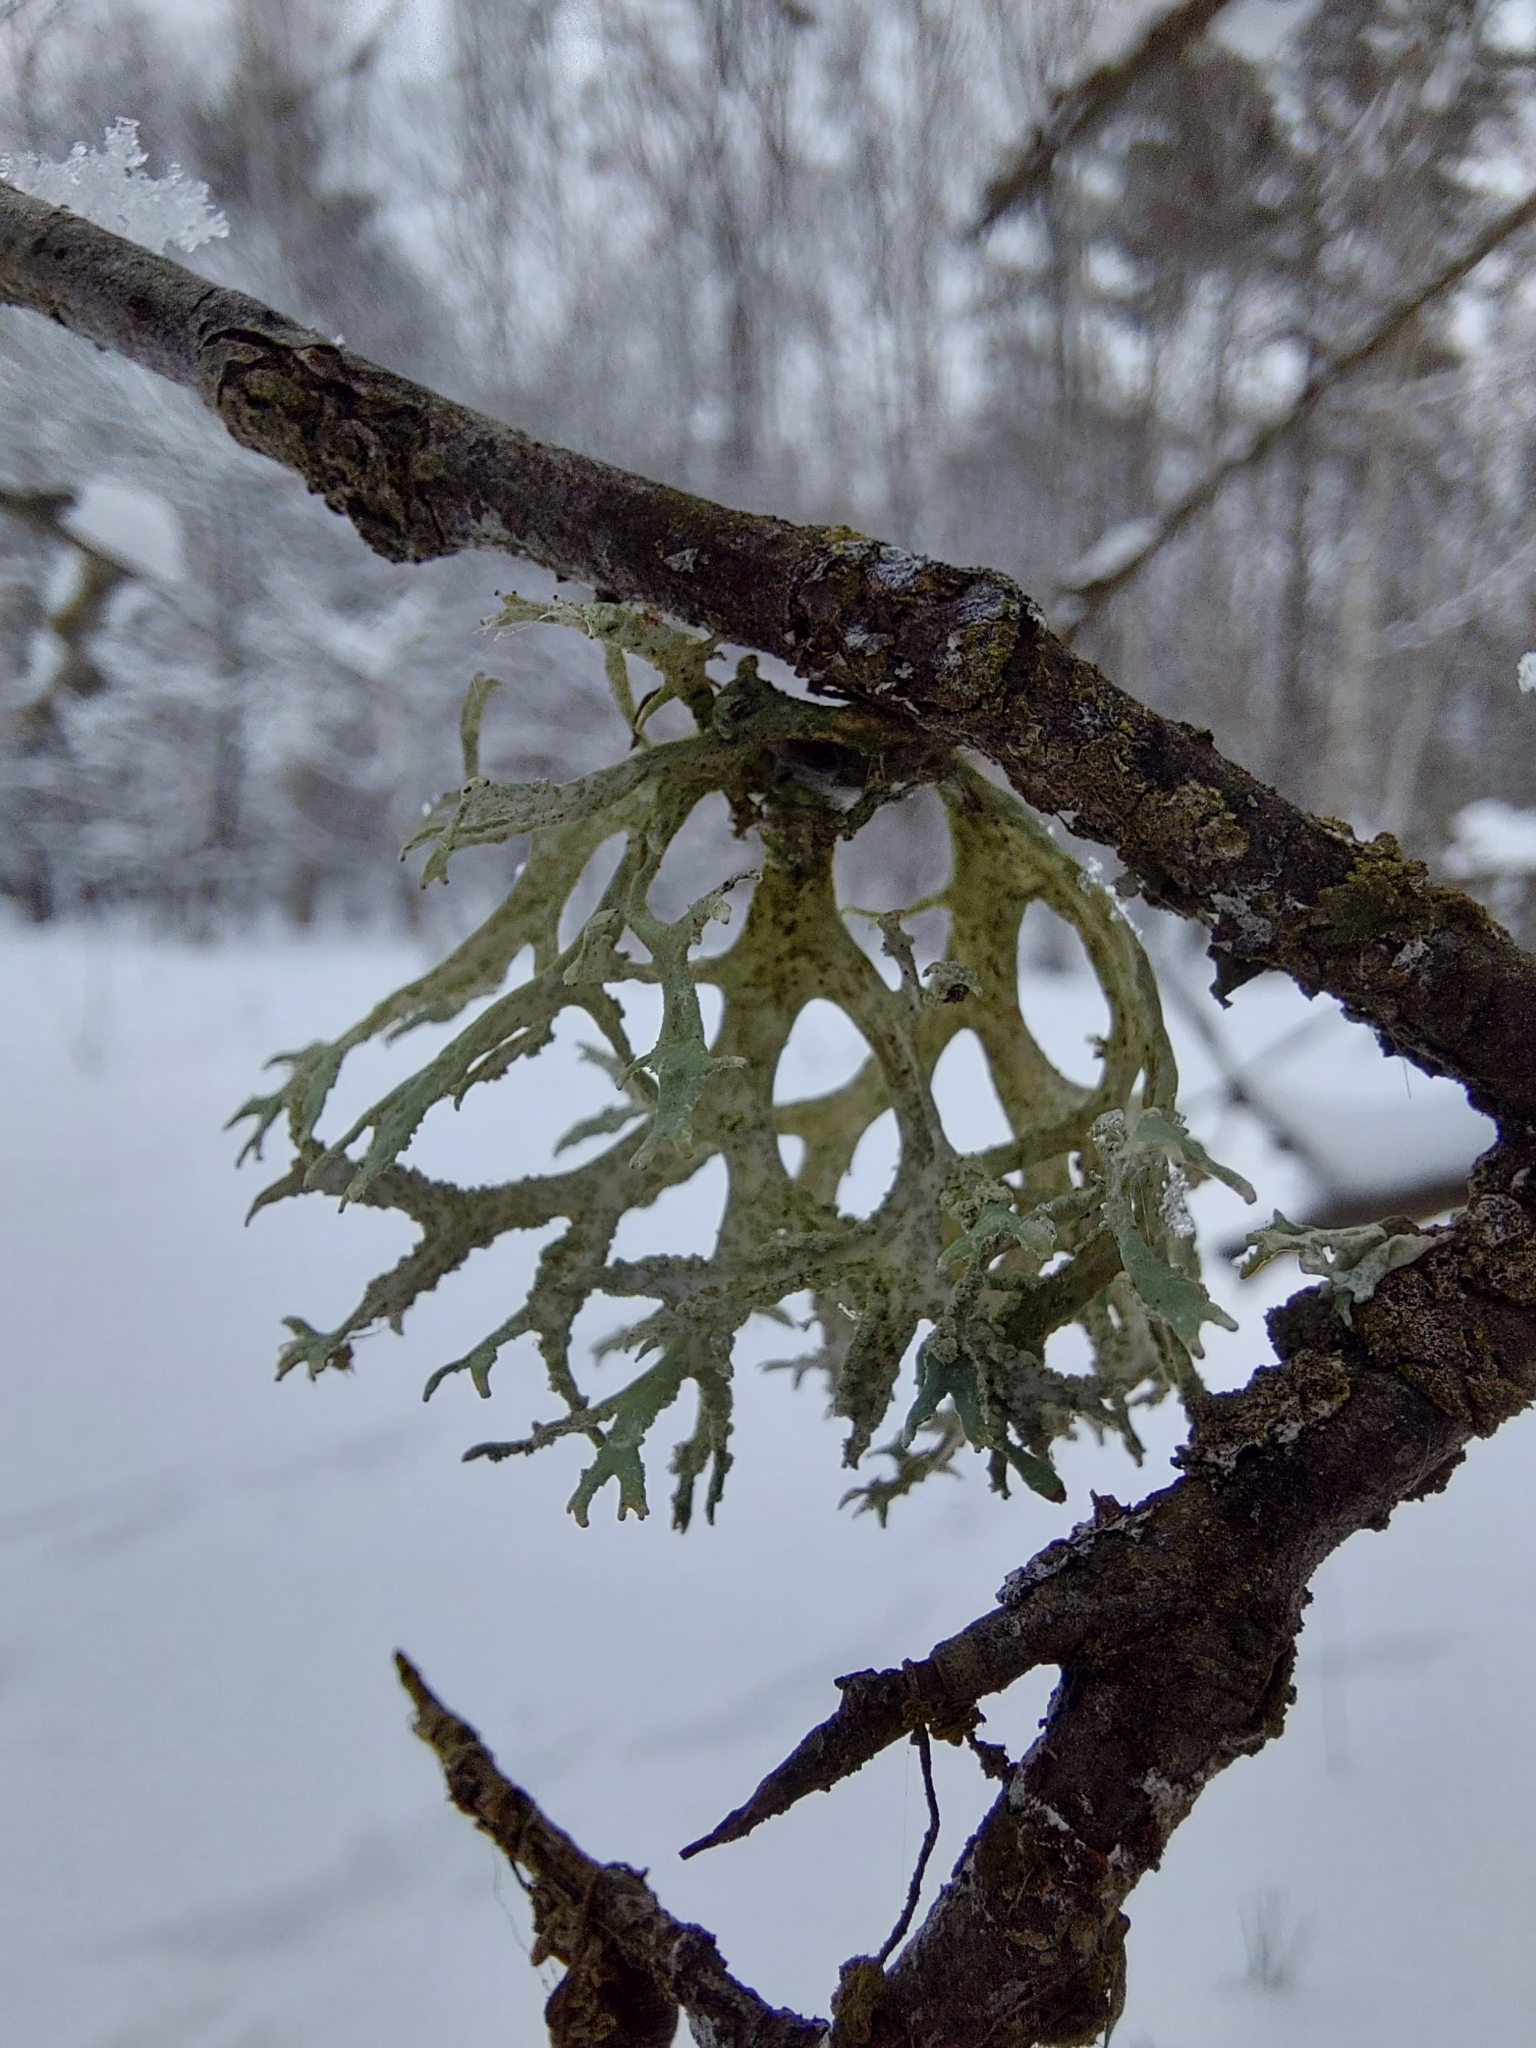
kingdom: Fungi
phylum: Ascomycota
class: Lecanoromycetes
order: Lecanorales
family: Parmeliaceae
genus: Evernia
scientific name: Evernia prunastri
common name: Oak moss
